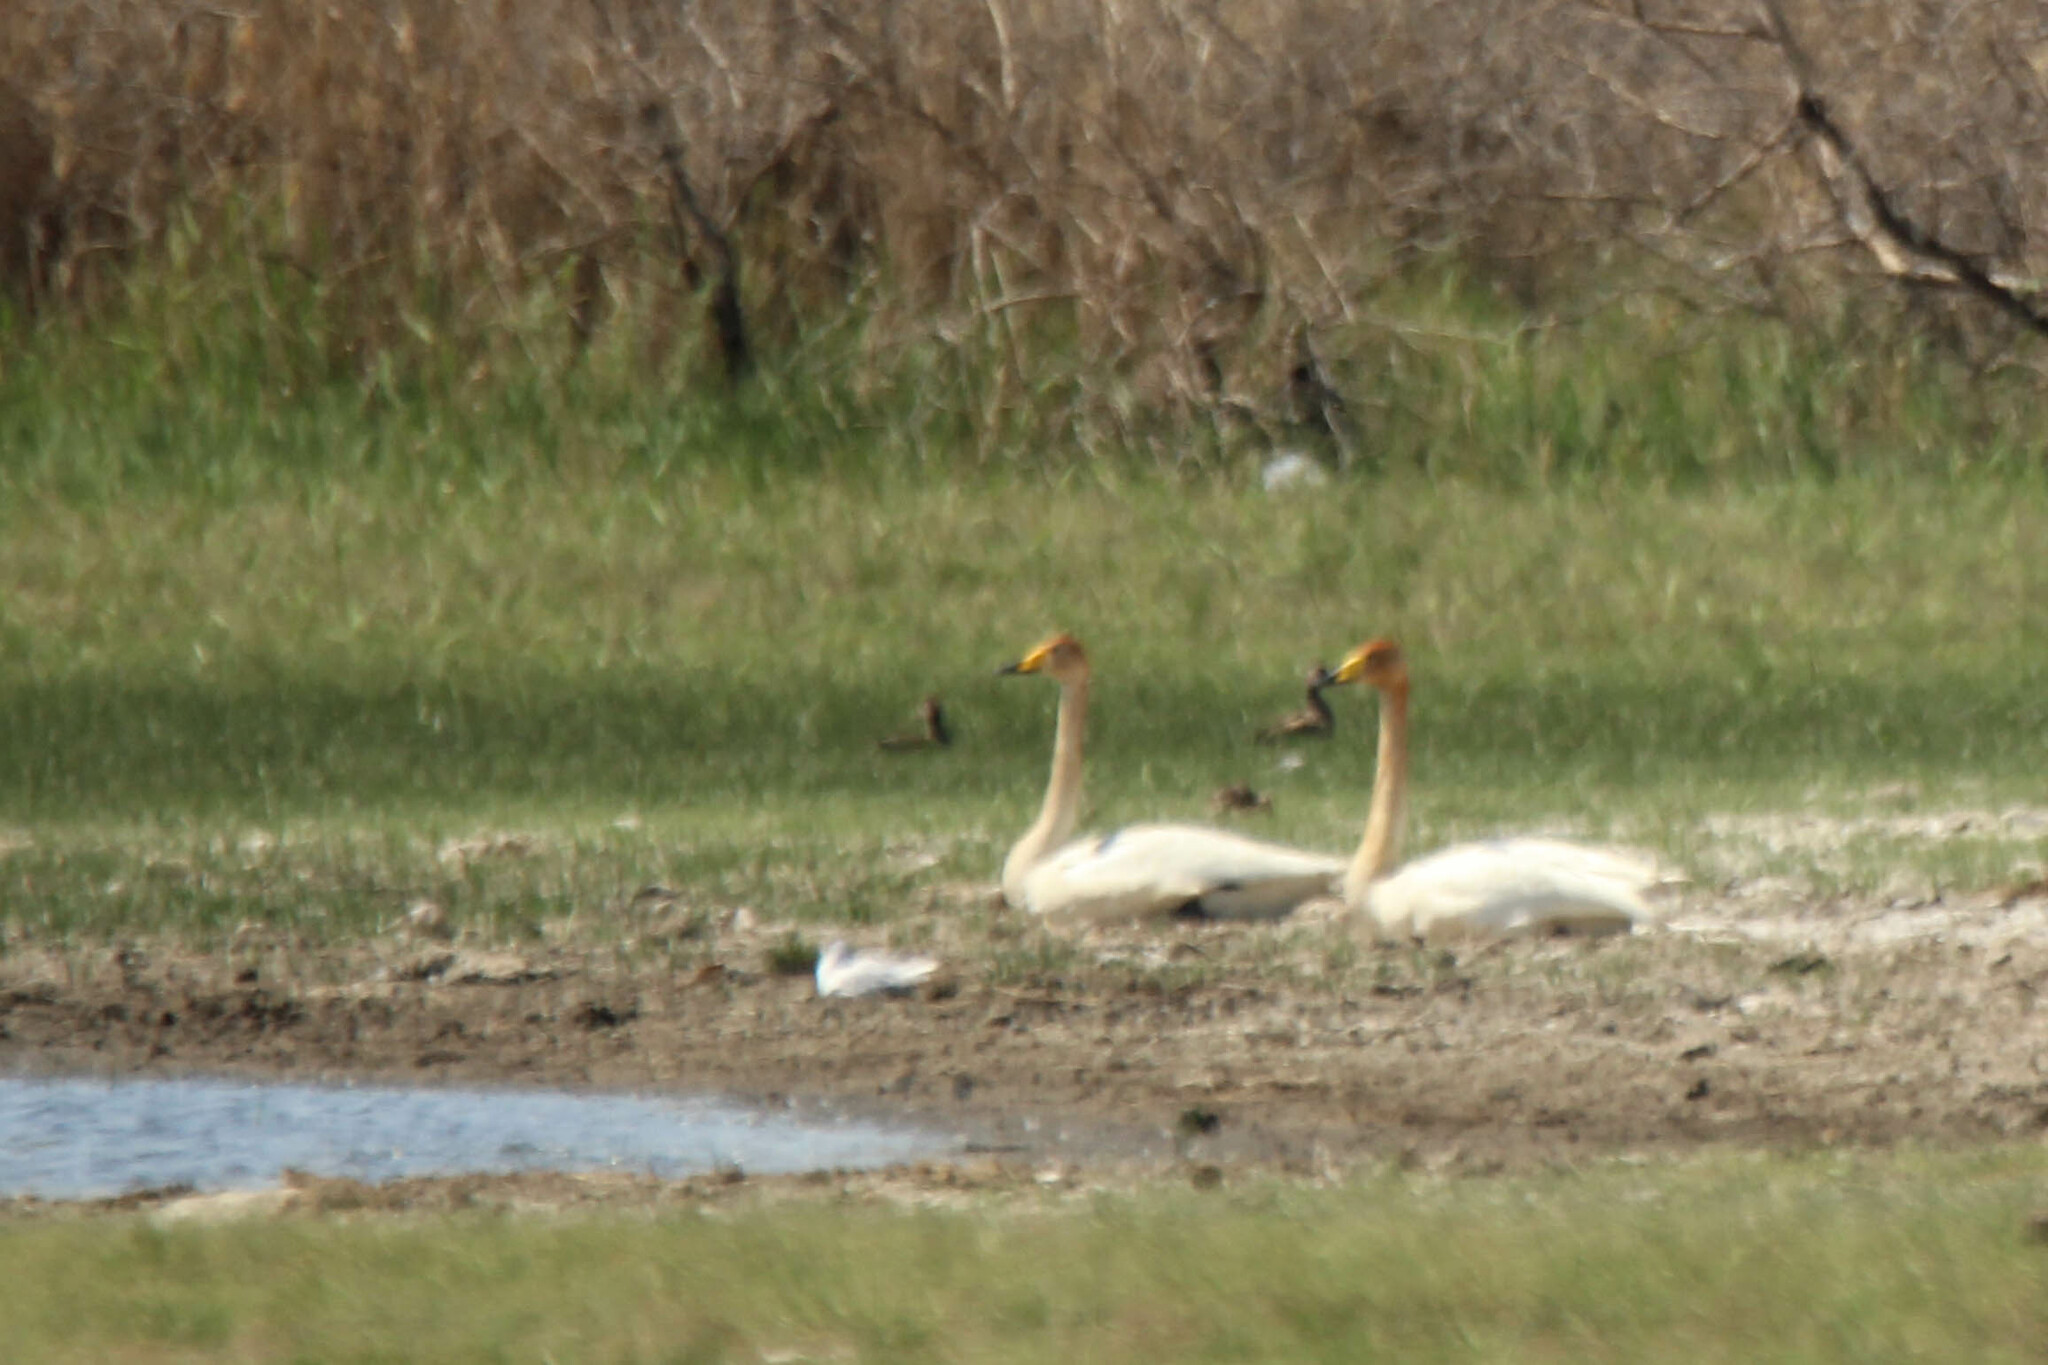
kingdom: Animalia
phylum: Chordata
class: Aves
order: Anseriformes
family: Anatidae
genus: Cygnus
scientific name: Cygnus cygnus
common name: Whooper swan
